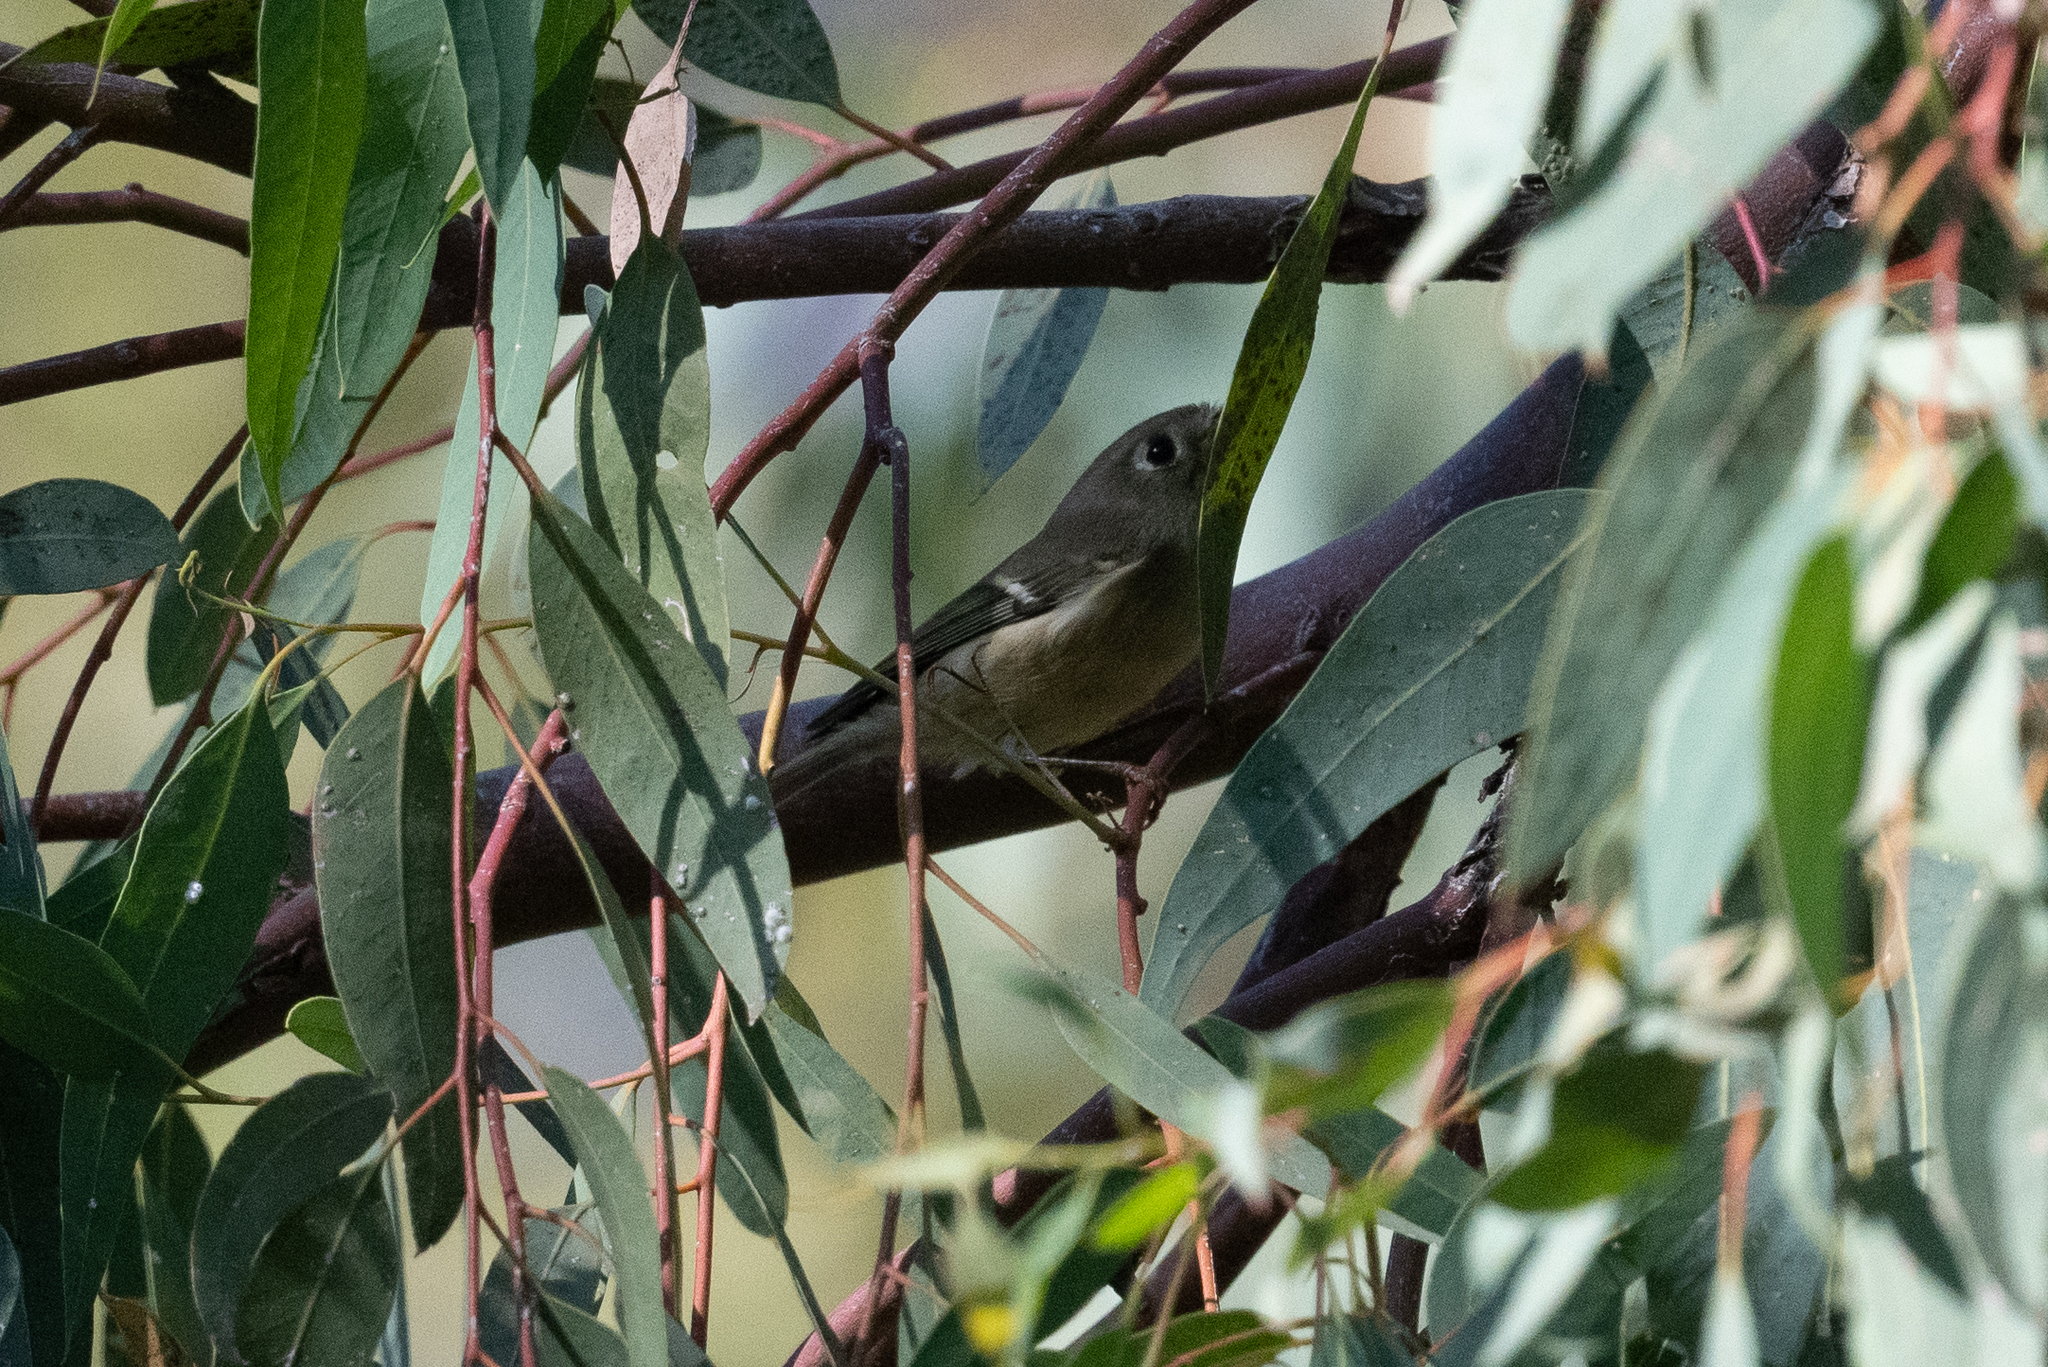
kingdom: Animalia
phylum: Chordata
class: Aves
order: Passeriformes
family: Regulidae
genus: Regulus
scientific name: Regulus calendula
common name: Ruby-crowned kinglet
